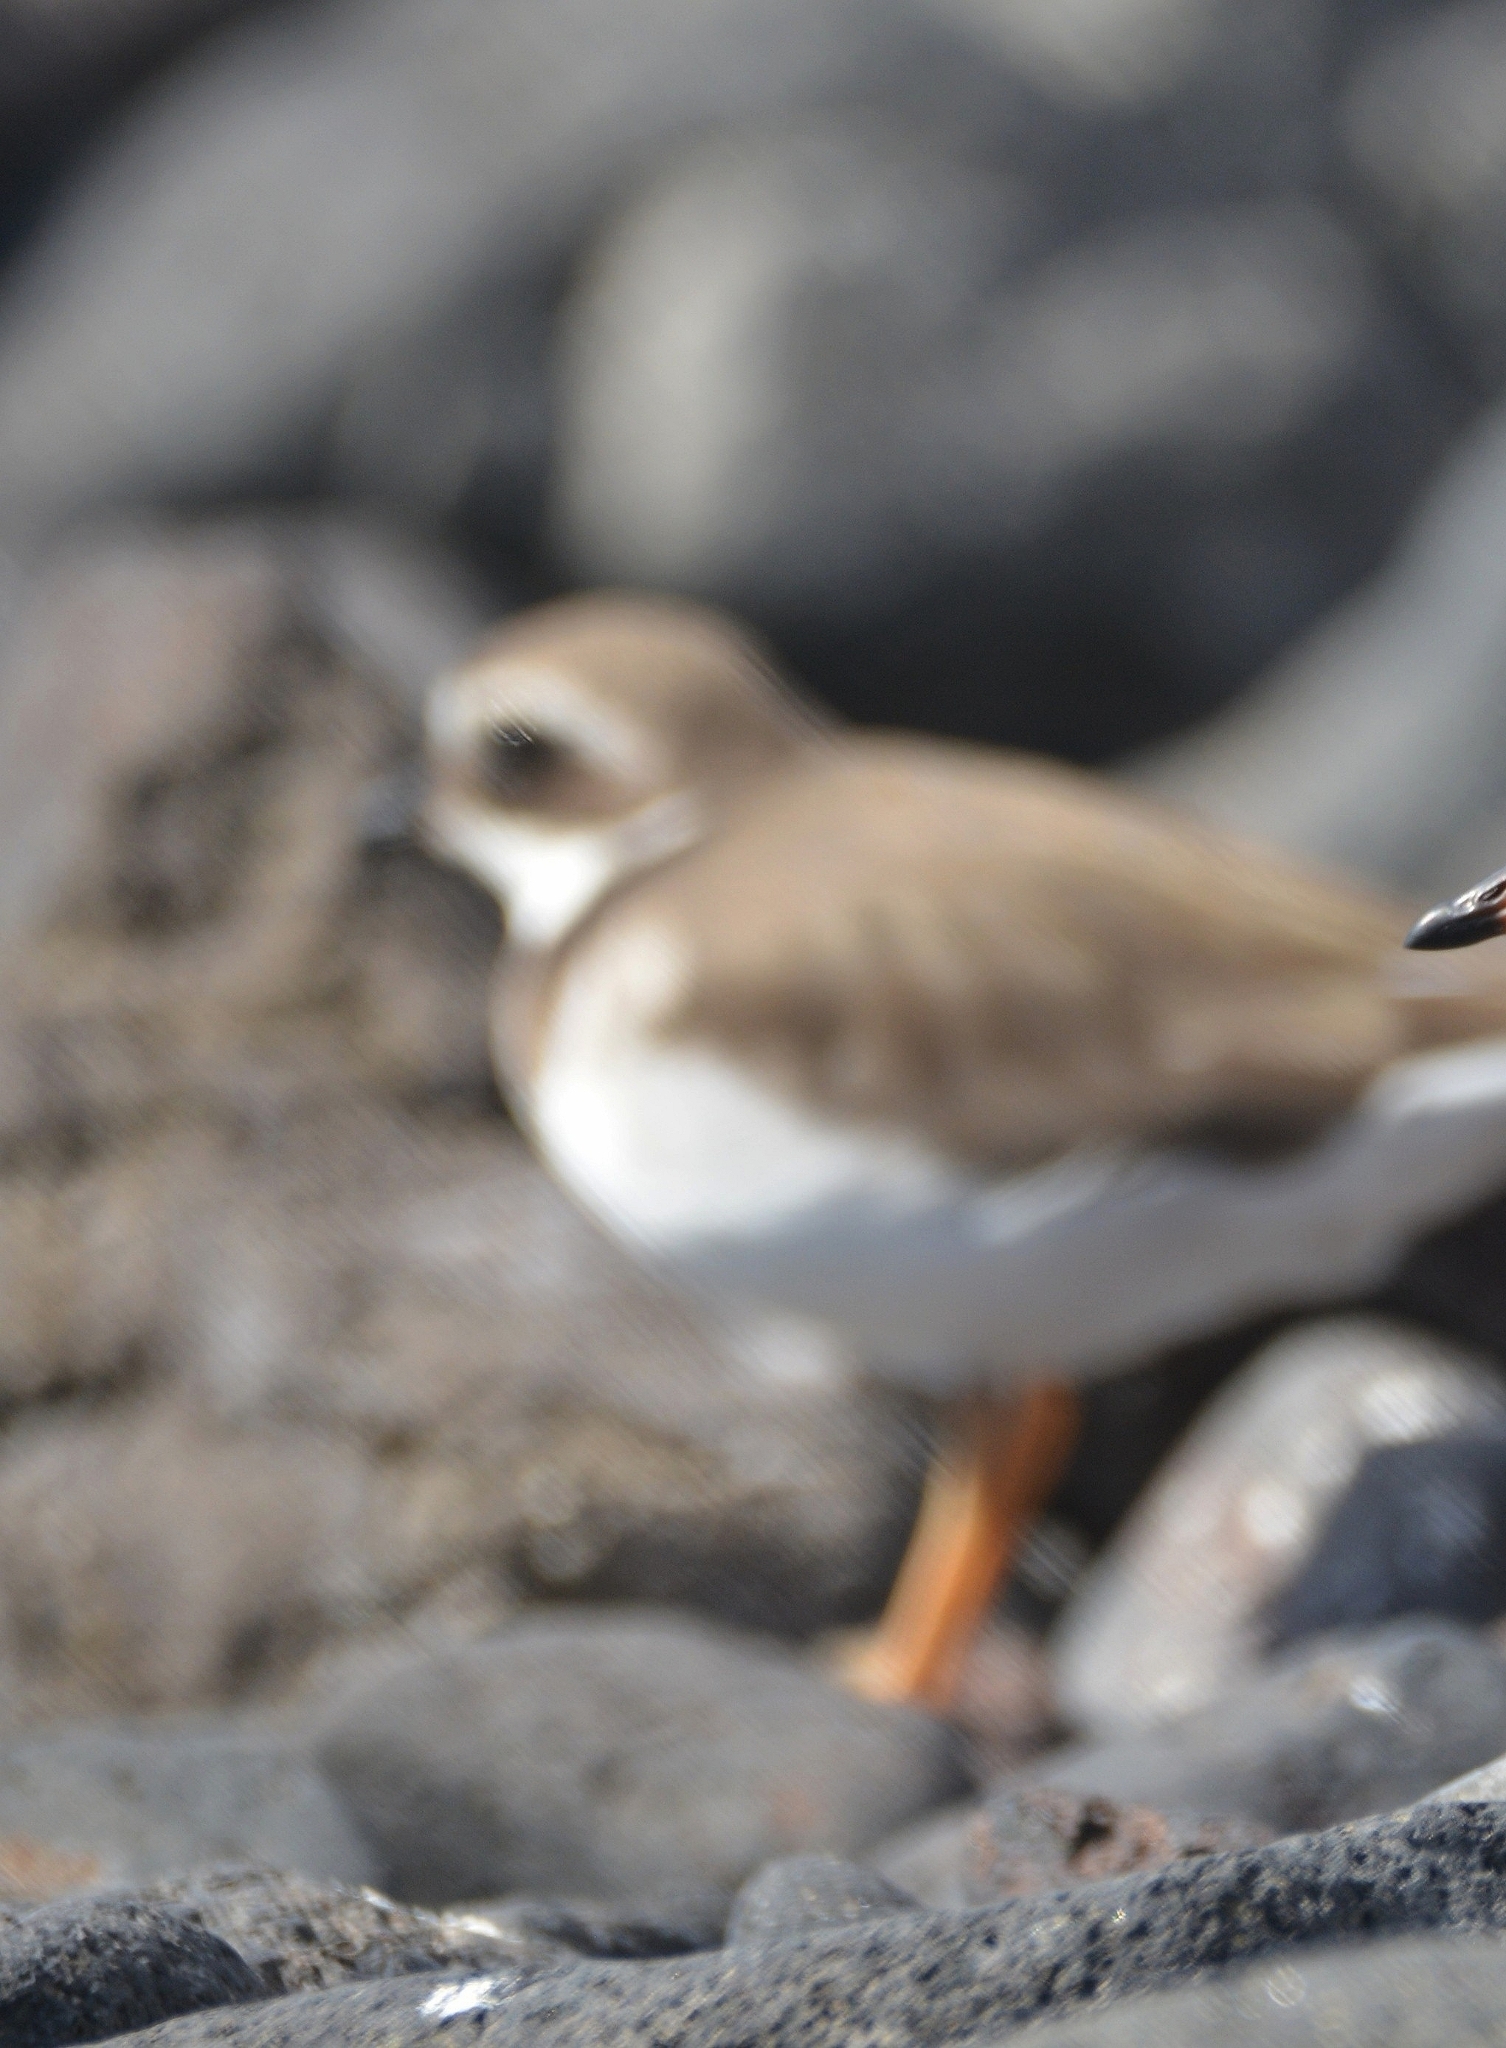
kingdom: Animalia
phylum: Chordata
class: Aves
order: Charadriiformes
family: Charadriidae
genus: Charadrius
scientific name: Charadrius hiaticula
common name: Common ringed plover
